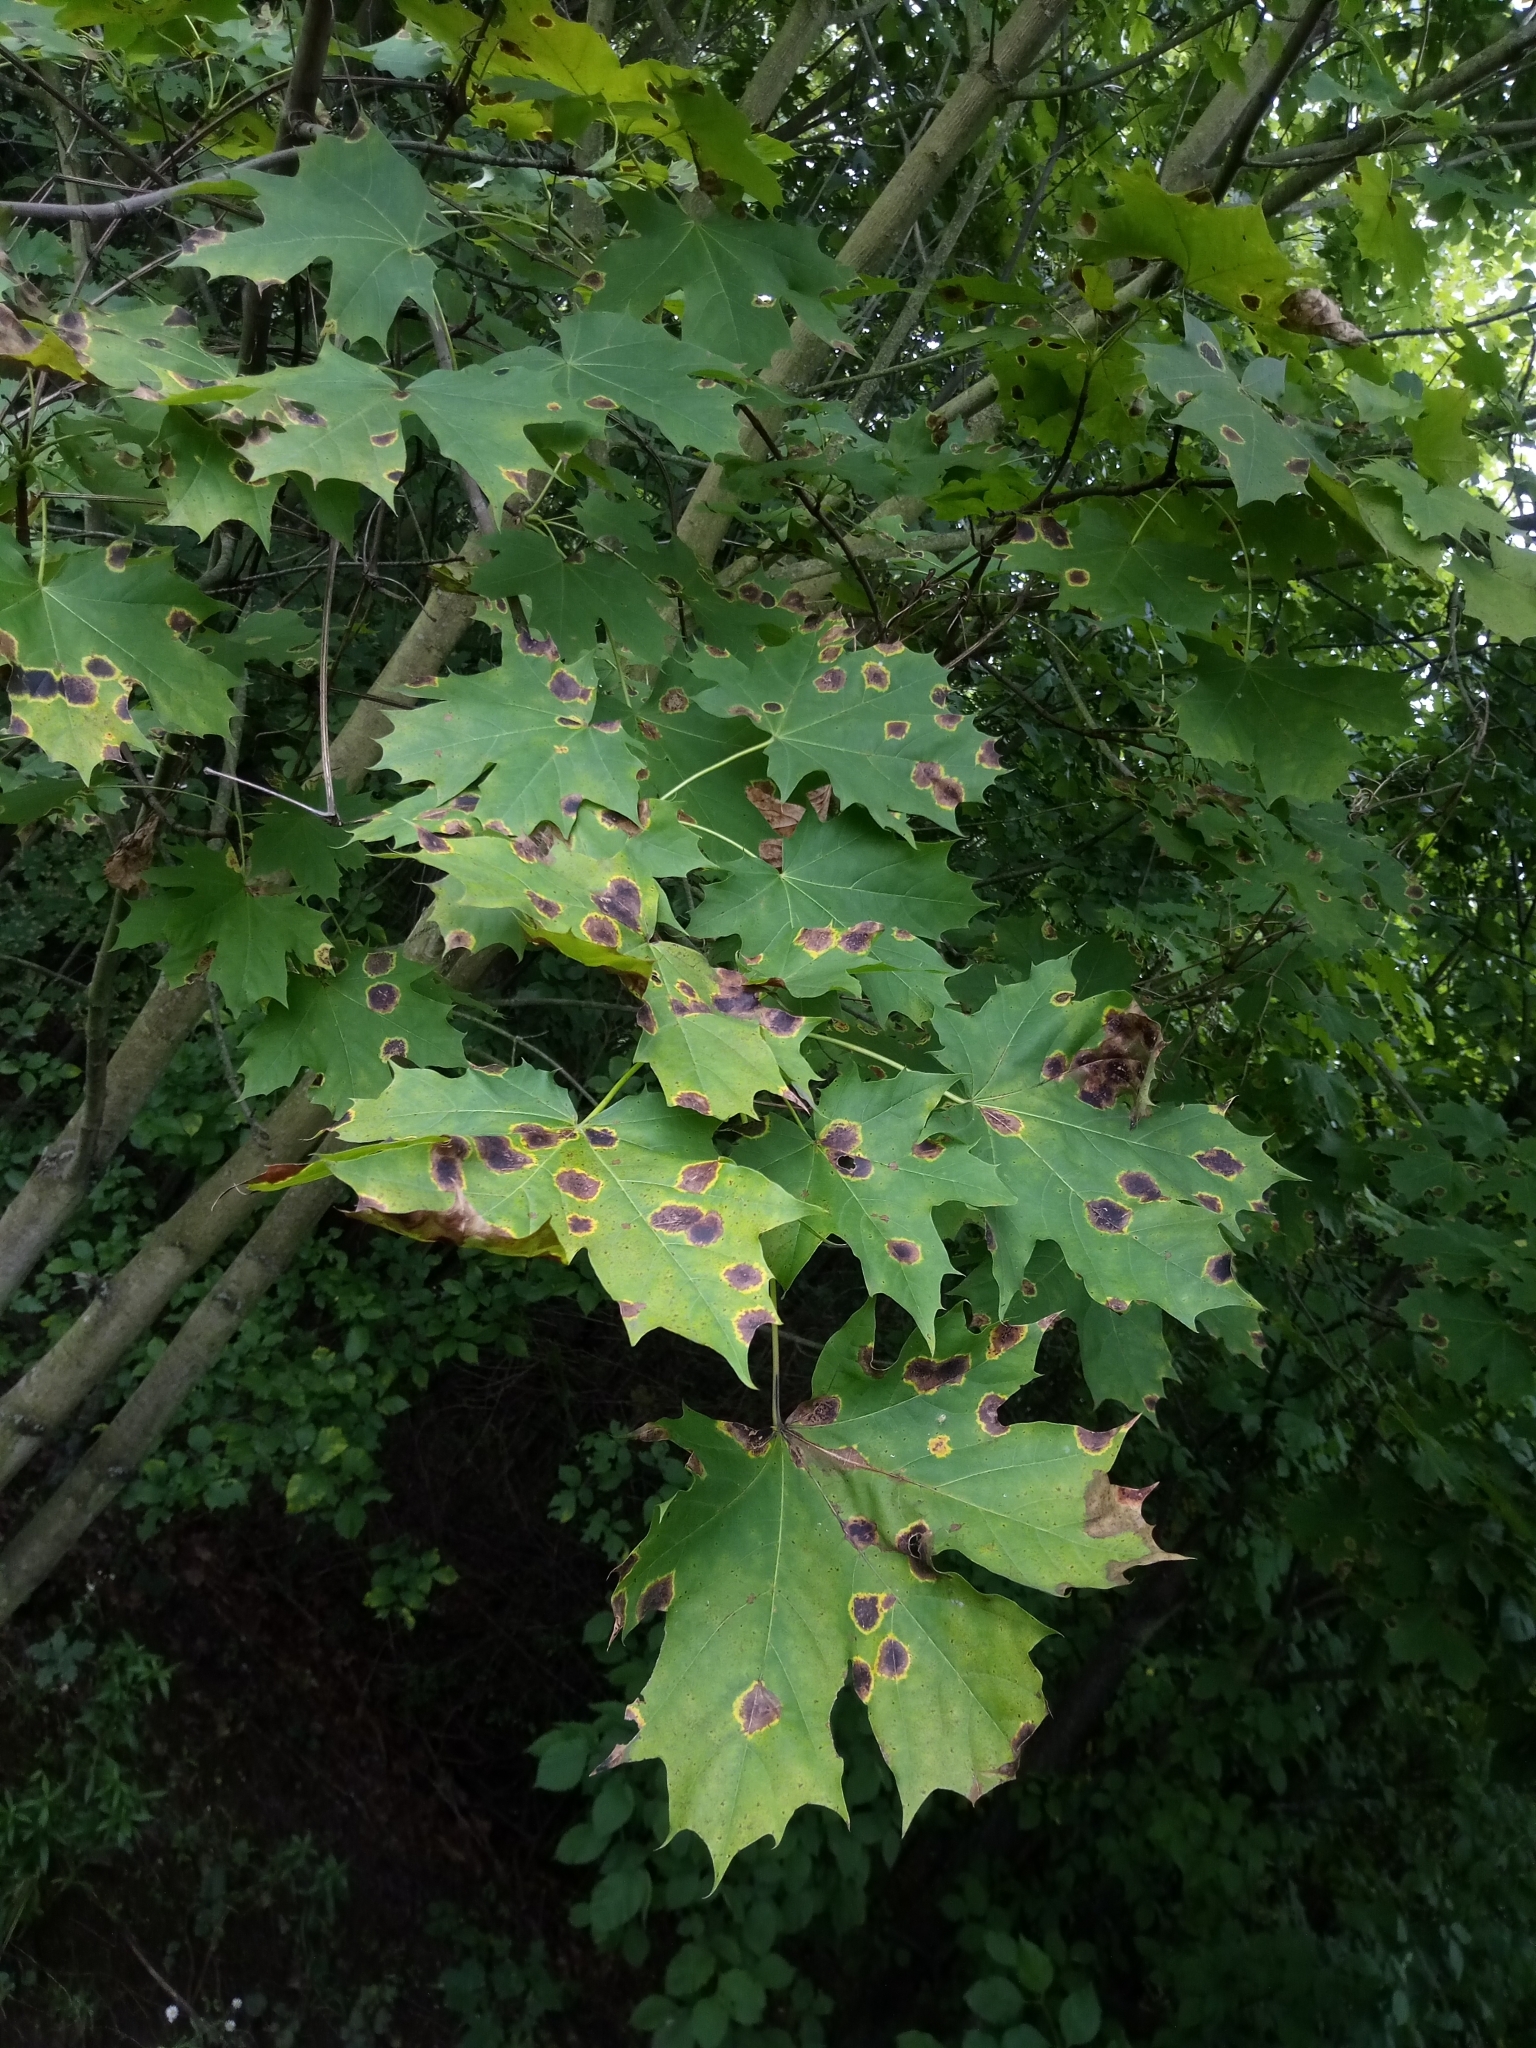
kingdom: Plantae
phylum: Tracheophyta
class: Magnoliopsida
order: Sapindales
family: Sapindaceae
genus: Acer
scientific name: Acer platanoides
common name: Norway maple
